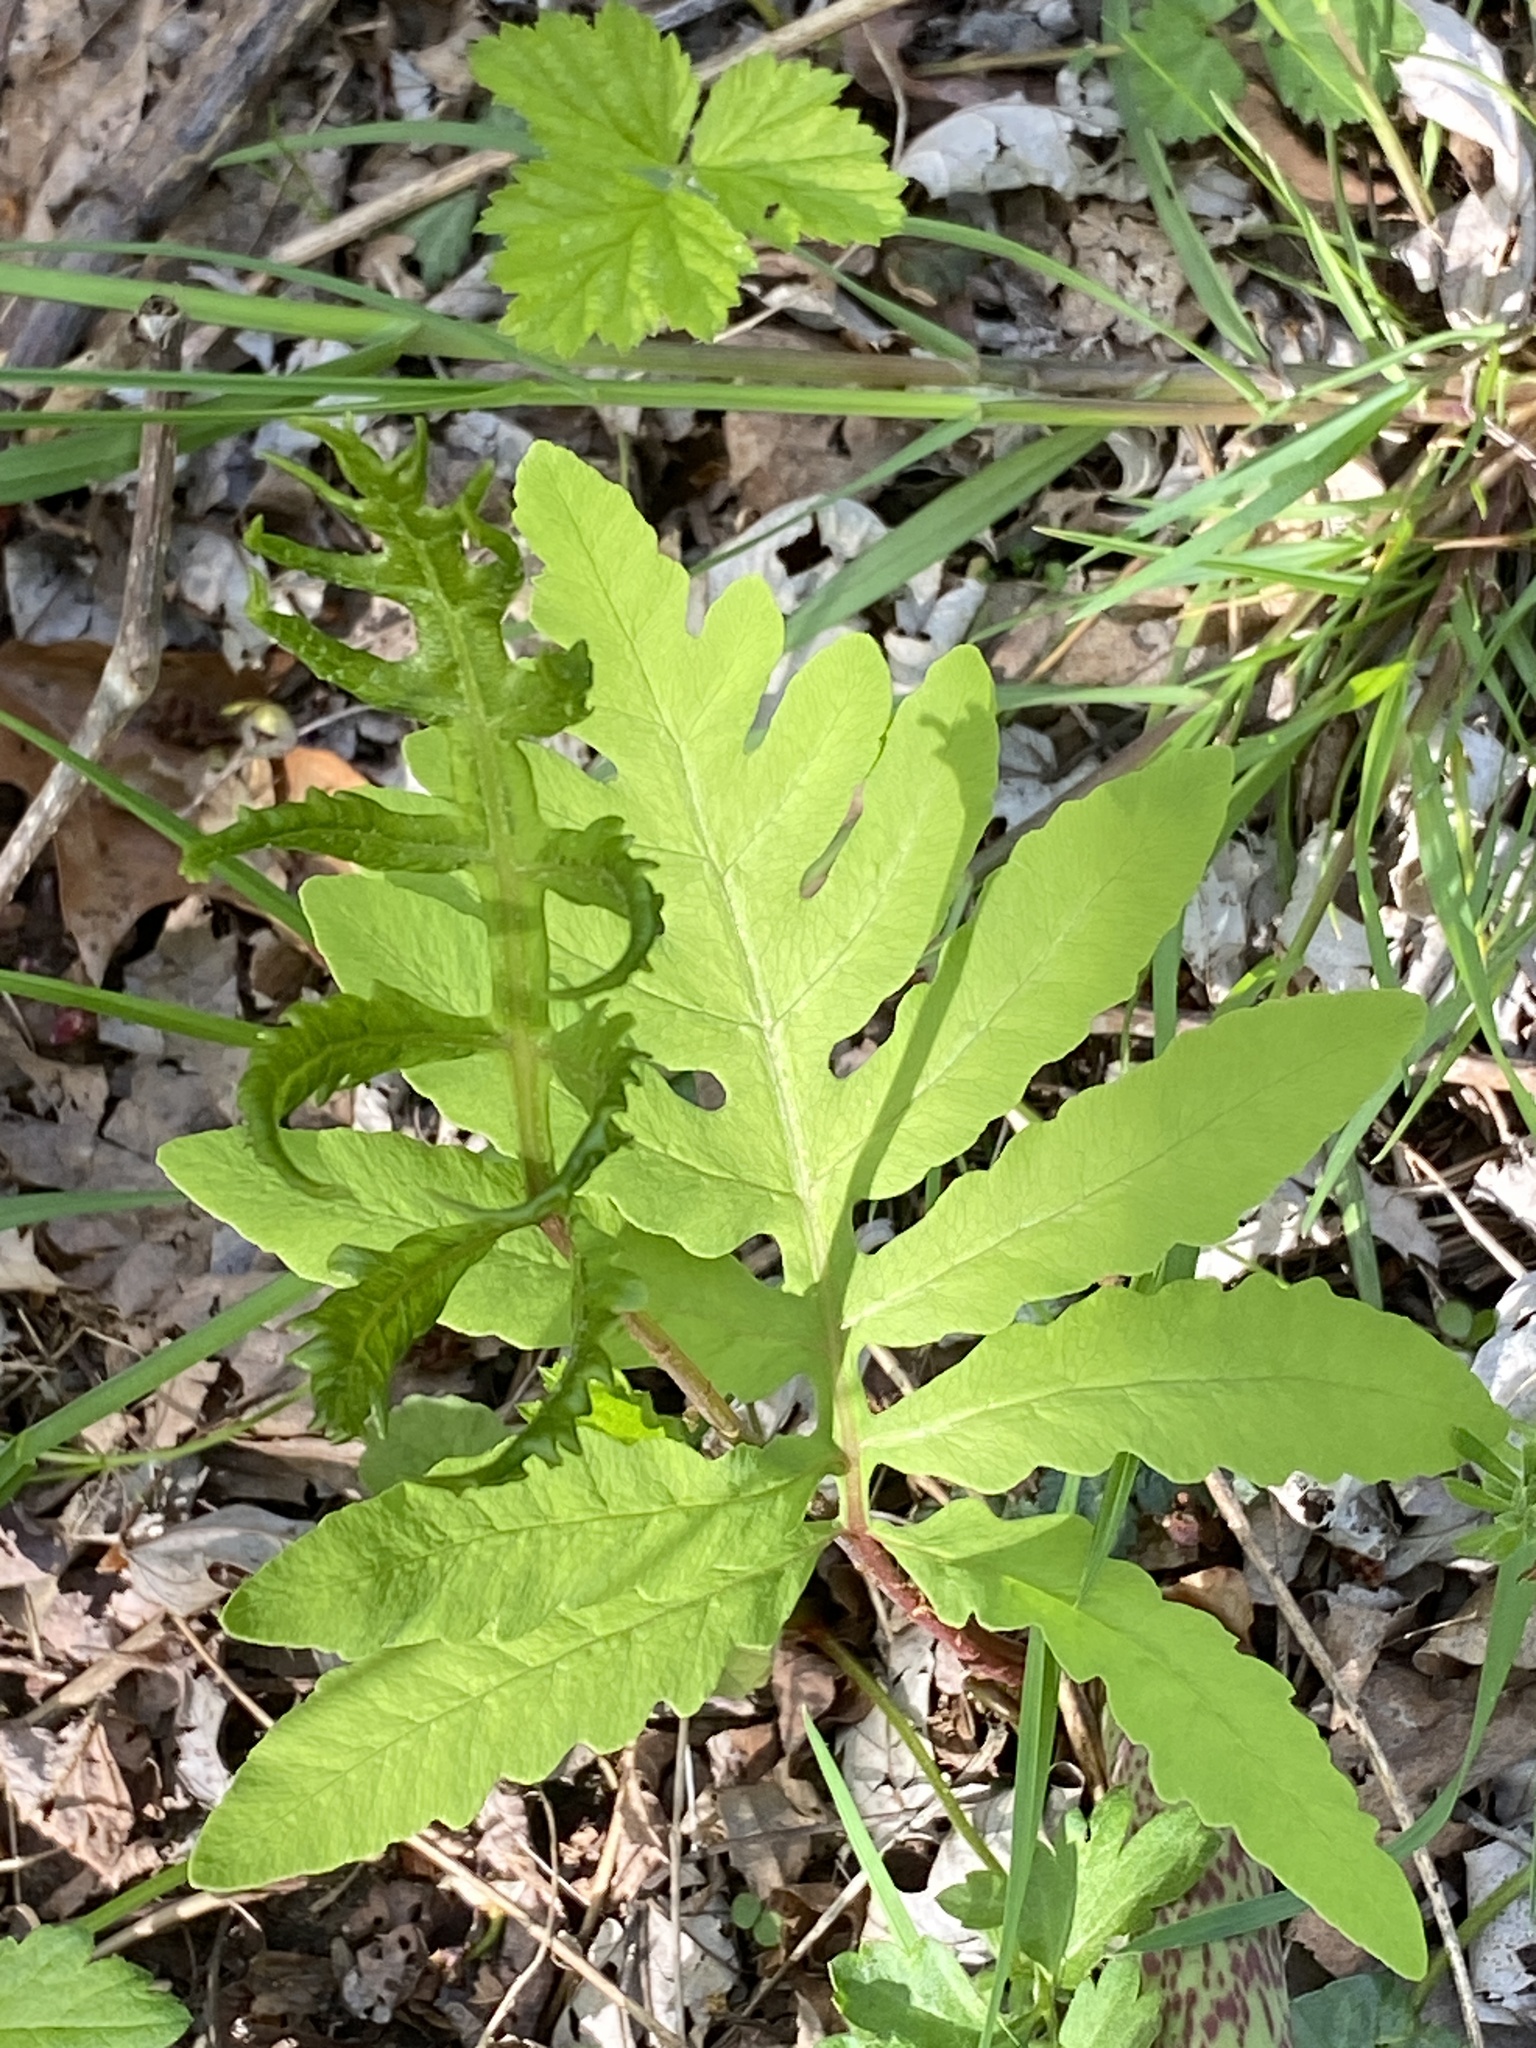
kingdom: Plantae
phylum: Tracheophyta
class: Polypodiopsida
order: Polypodiales
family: Onocleaceae
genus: Onoclea
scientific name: Onoclea sensibilis
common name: Sensitive fern
